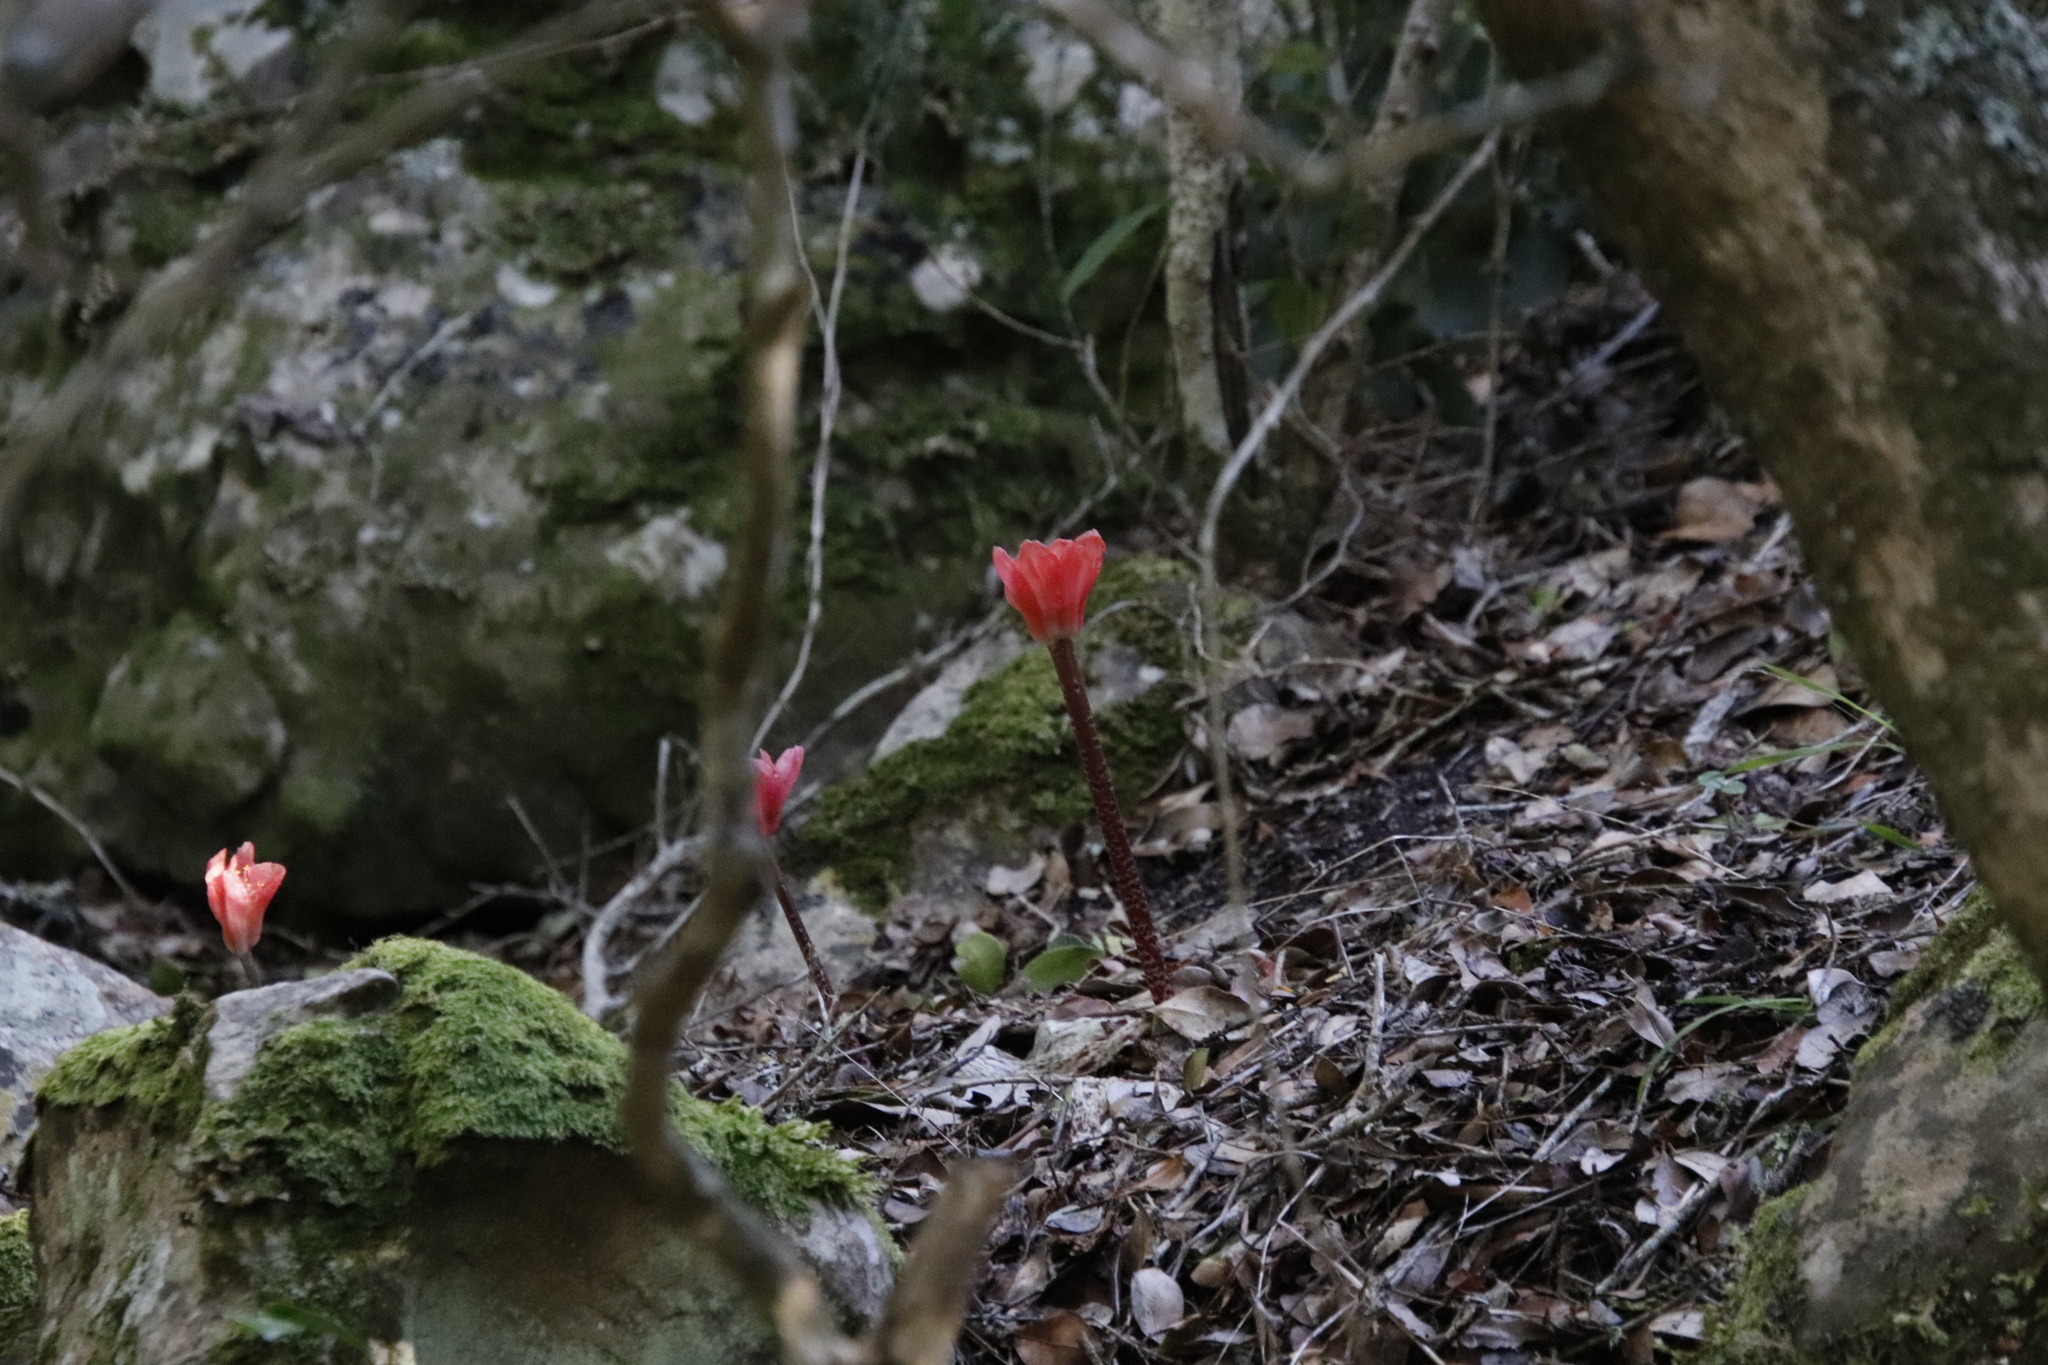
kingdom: Plantae
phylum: Tracheophyta
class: Liliopsida
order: Asparagales
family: Amaryllidaceae
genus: Haemanthus
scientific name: Haemanthus coccineus
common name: Cape-tulip
